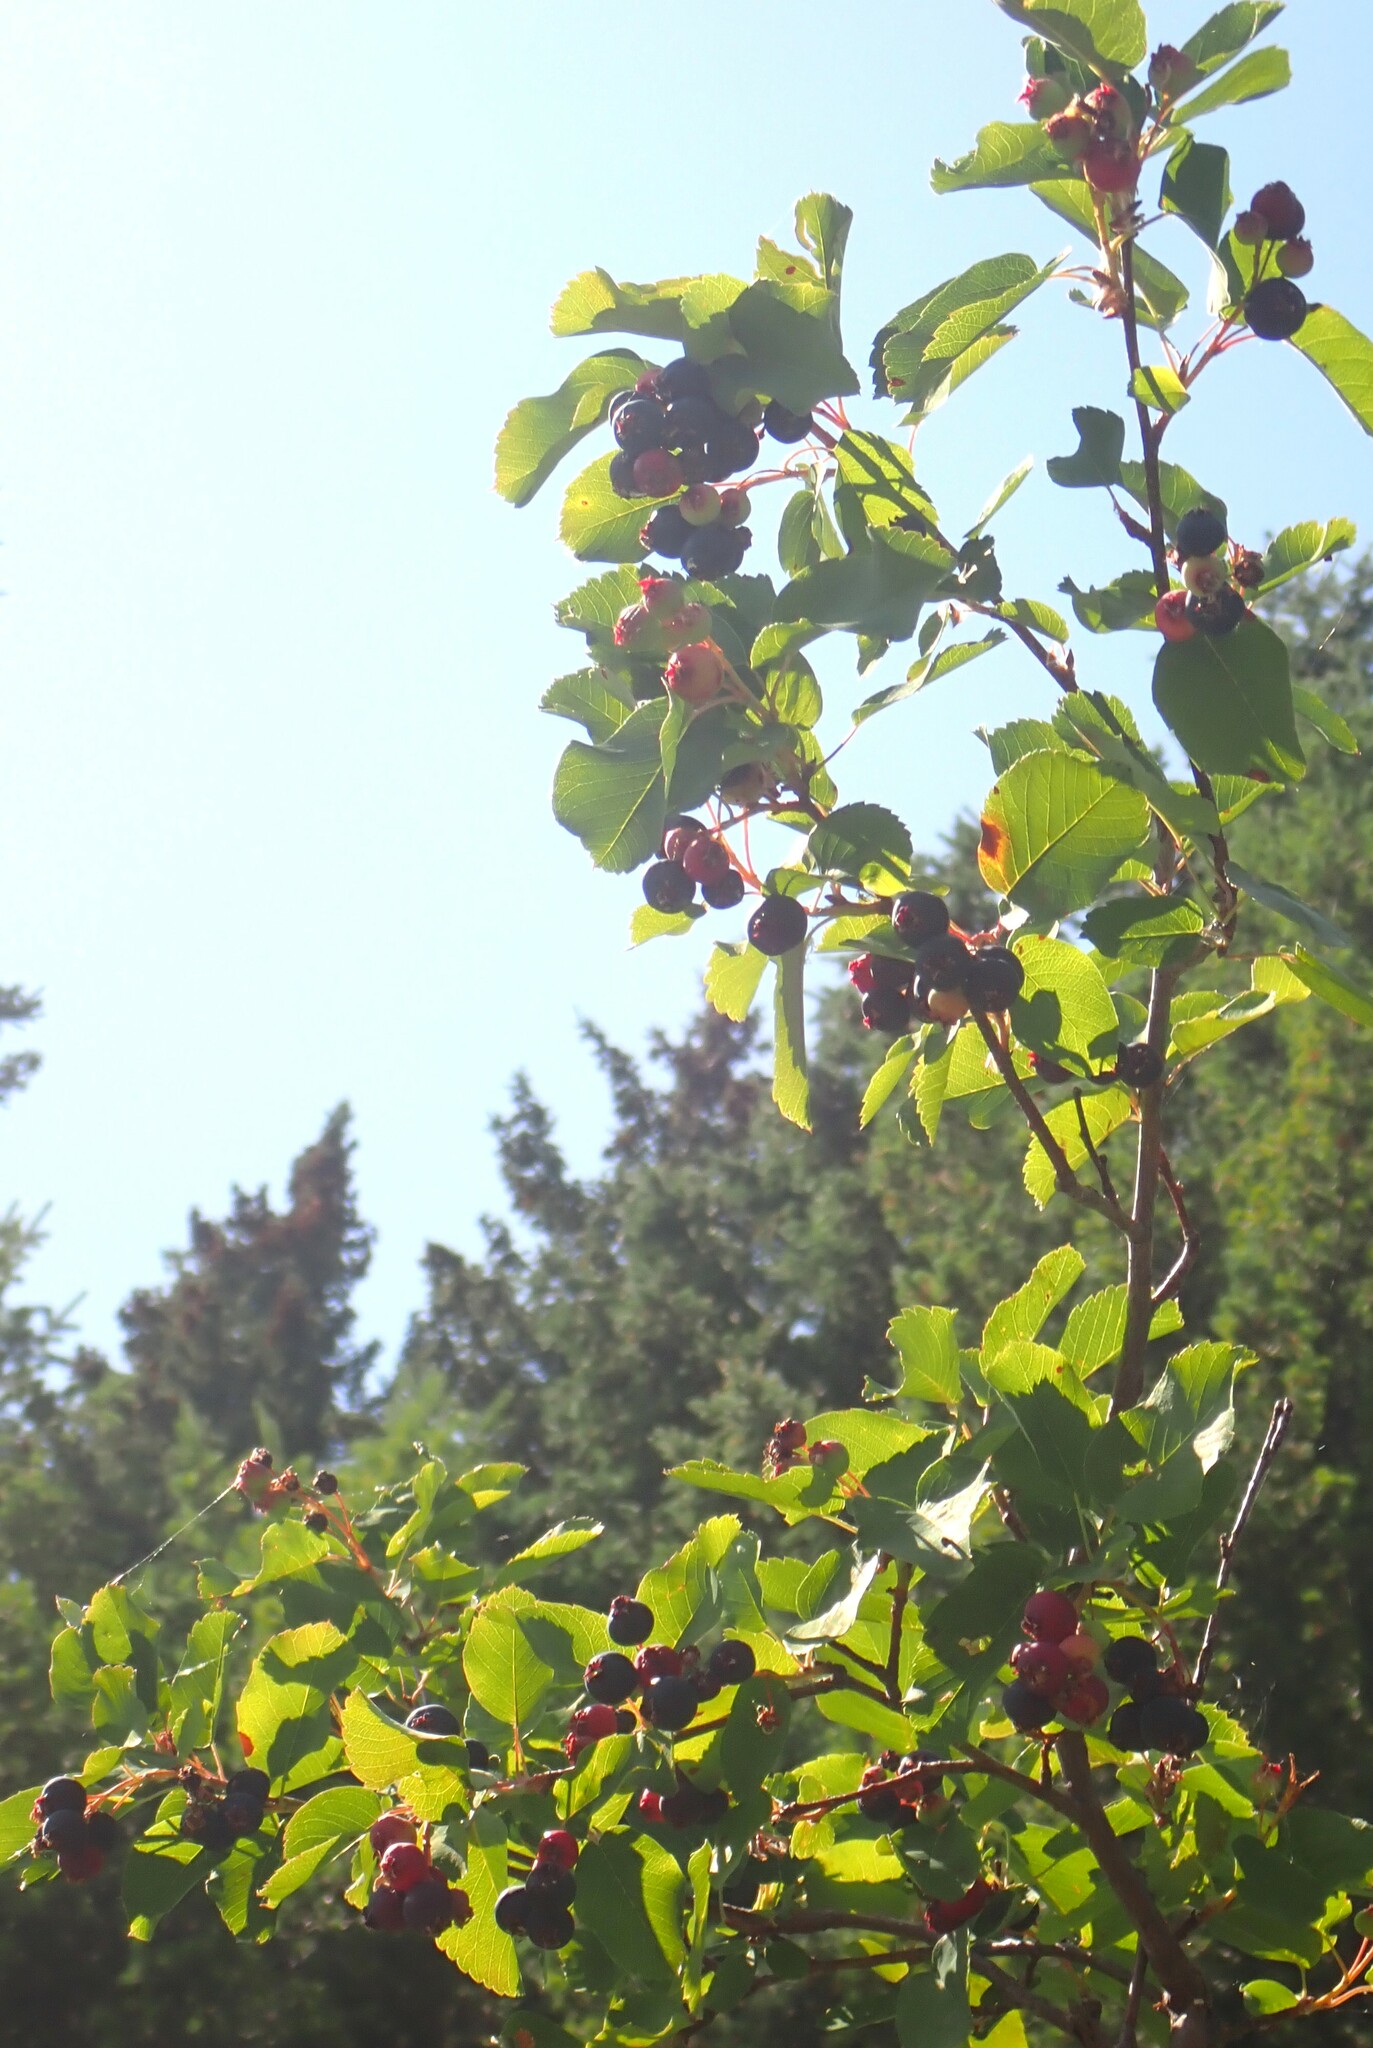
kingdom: Plantae
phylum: Tracheophyta
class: Magnoliopsida
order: Rosales
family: Rosaceae
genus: Amelanchier
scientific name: Amelanchier alnifolia
